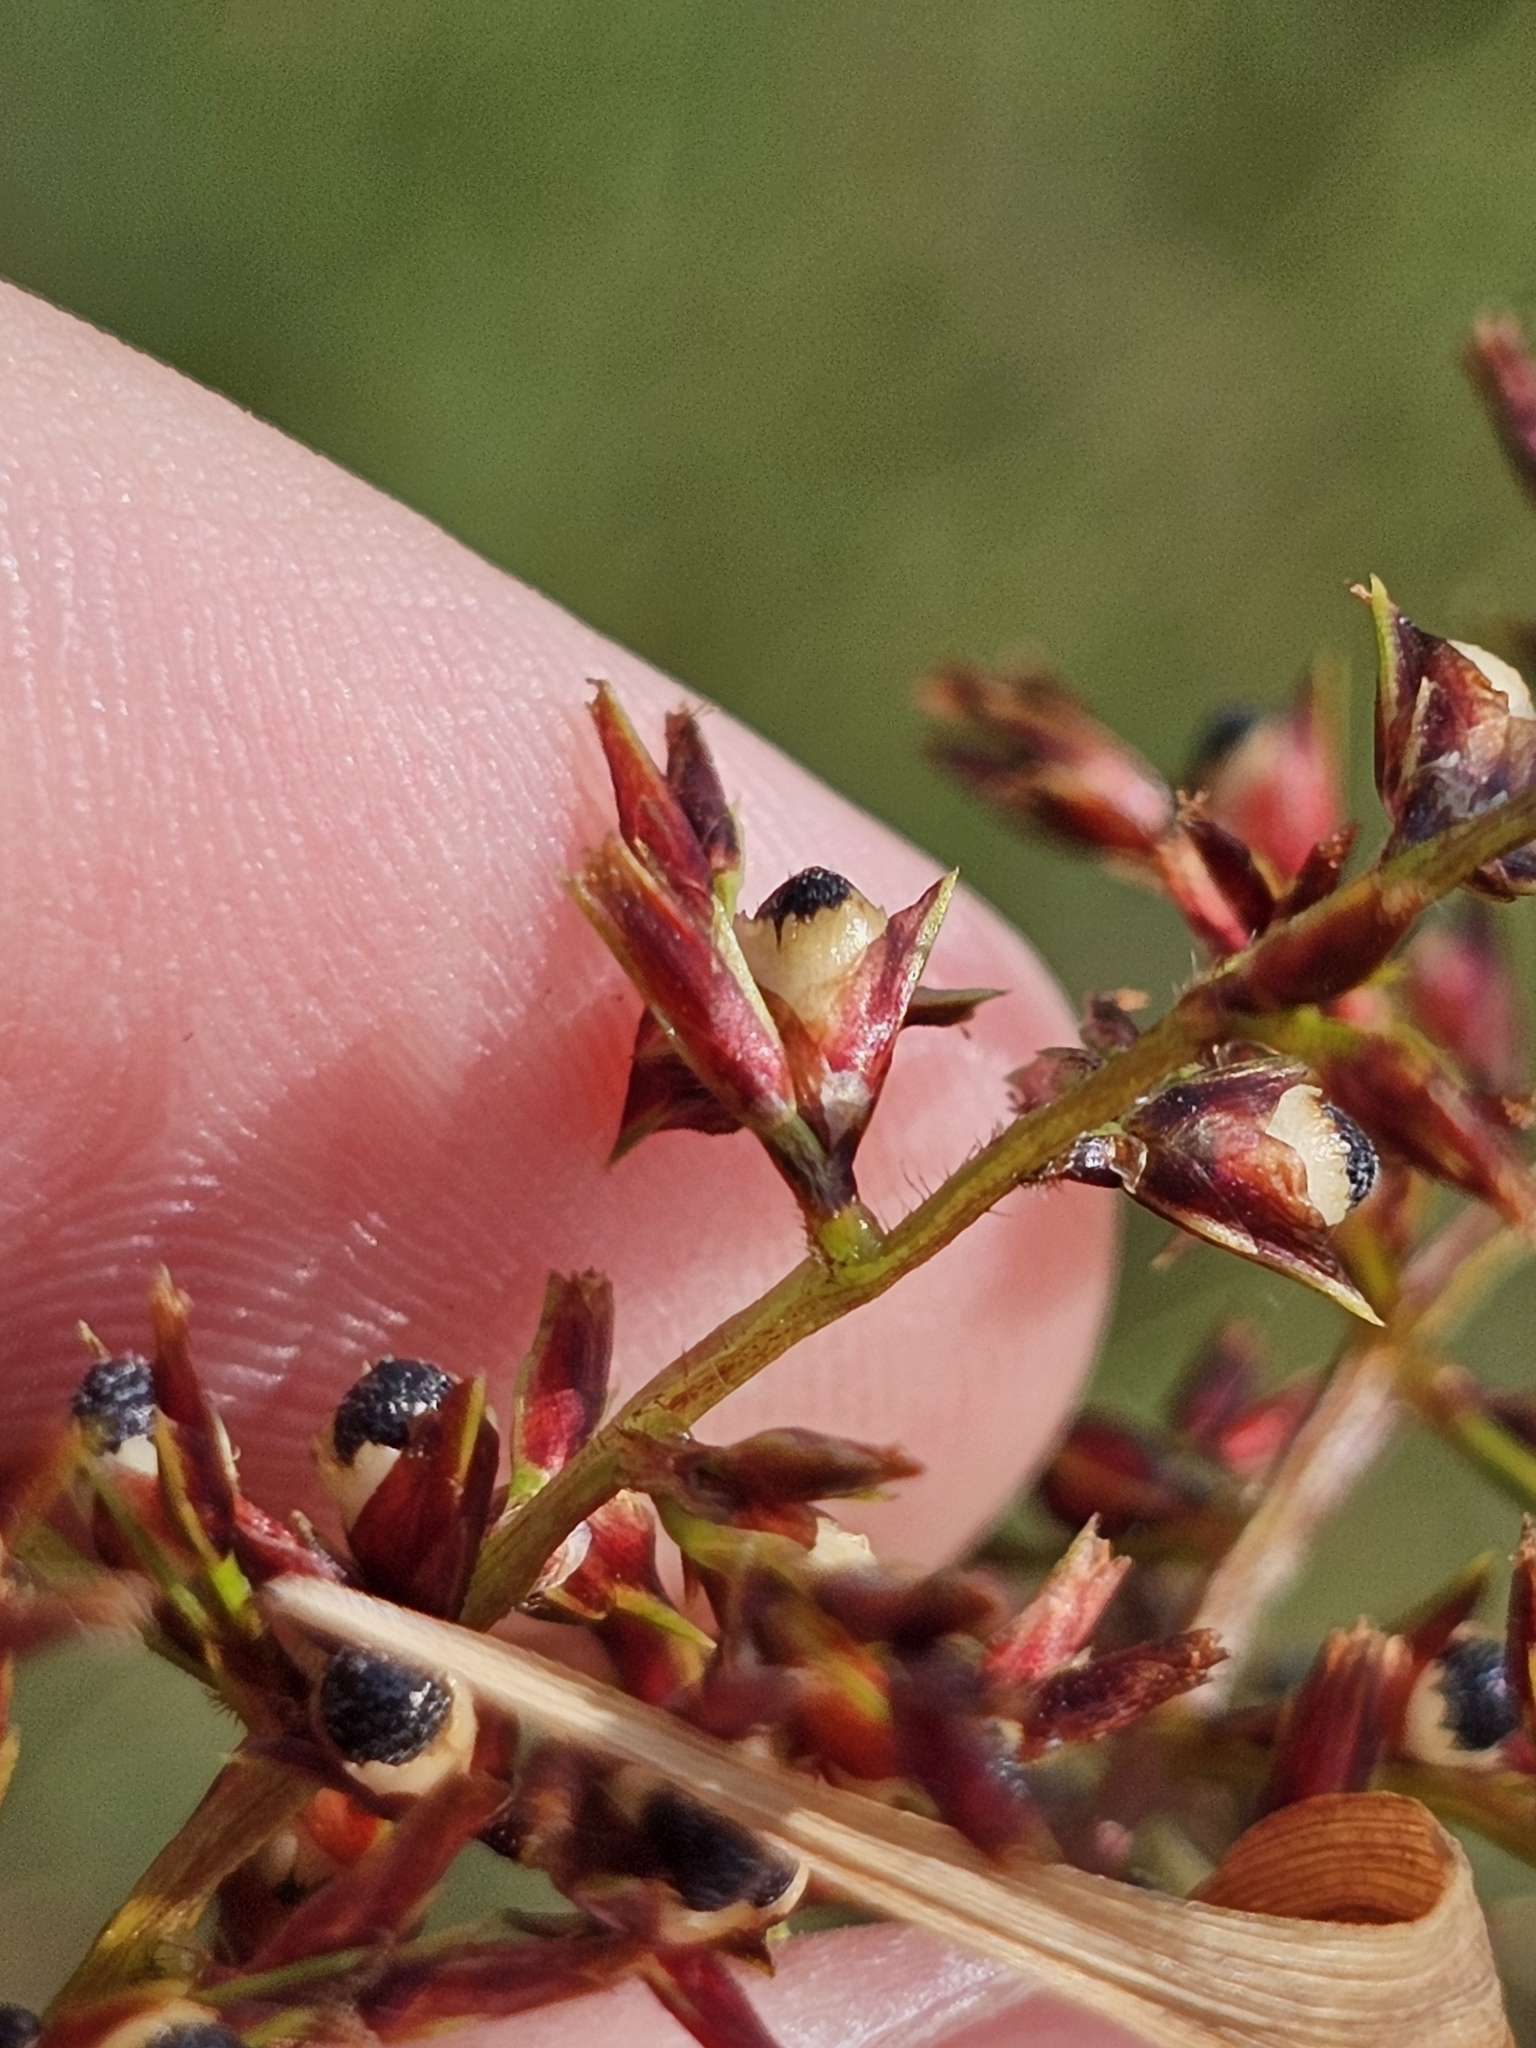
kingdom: Plantae
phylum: Tracheophyta
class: Liliopsida
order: Poales
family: Cyperaceae
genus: Scleria
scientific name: Scleria sumatrensis
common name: Sumatran scleria
